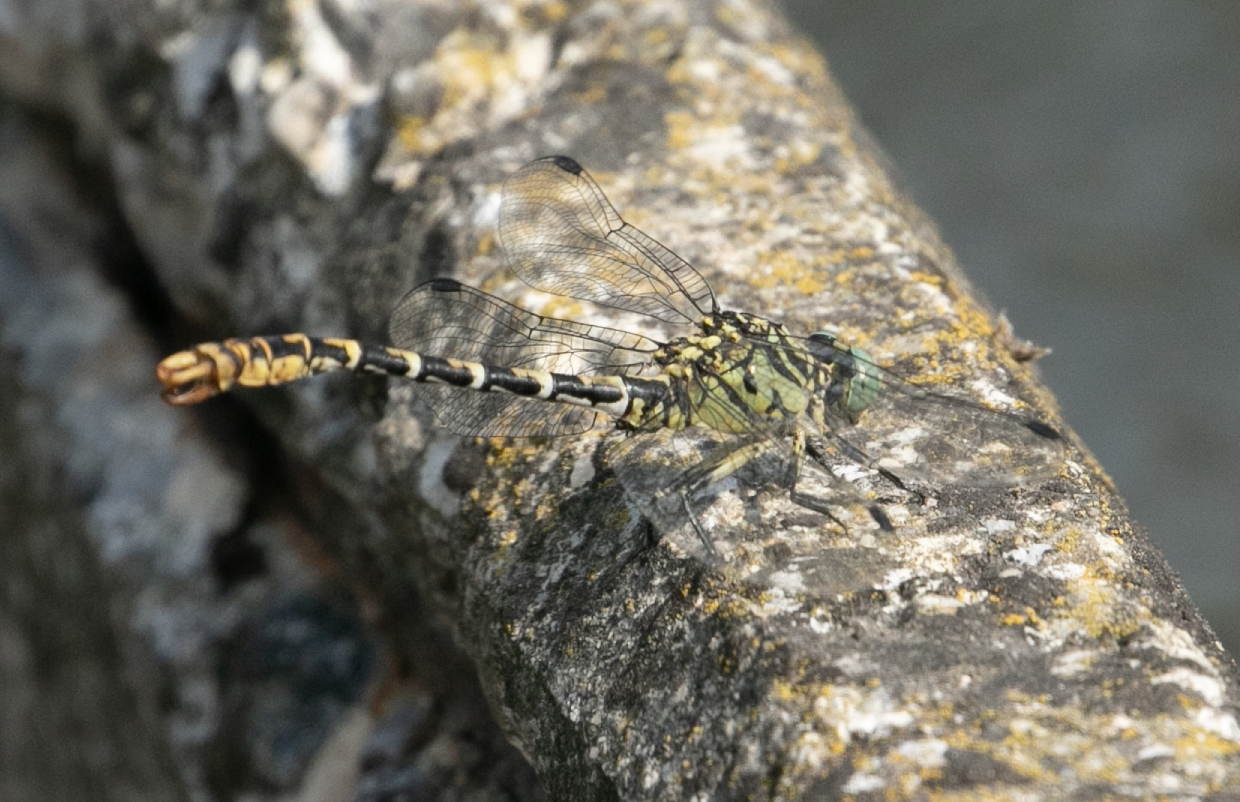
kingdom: Animalia
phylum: Arthropoda
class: Insecta
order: Odonata
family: Gomphidae
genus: Onychogomphus
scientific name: Onychogomphus forcipatus
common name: Small pincertail
